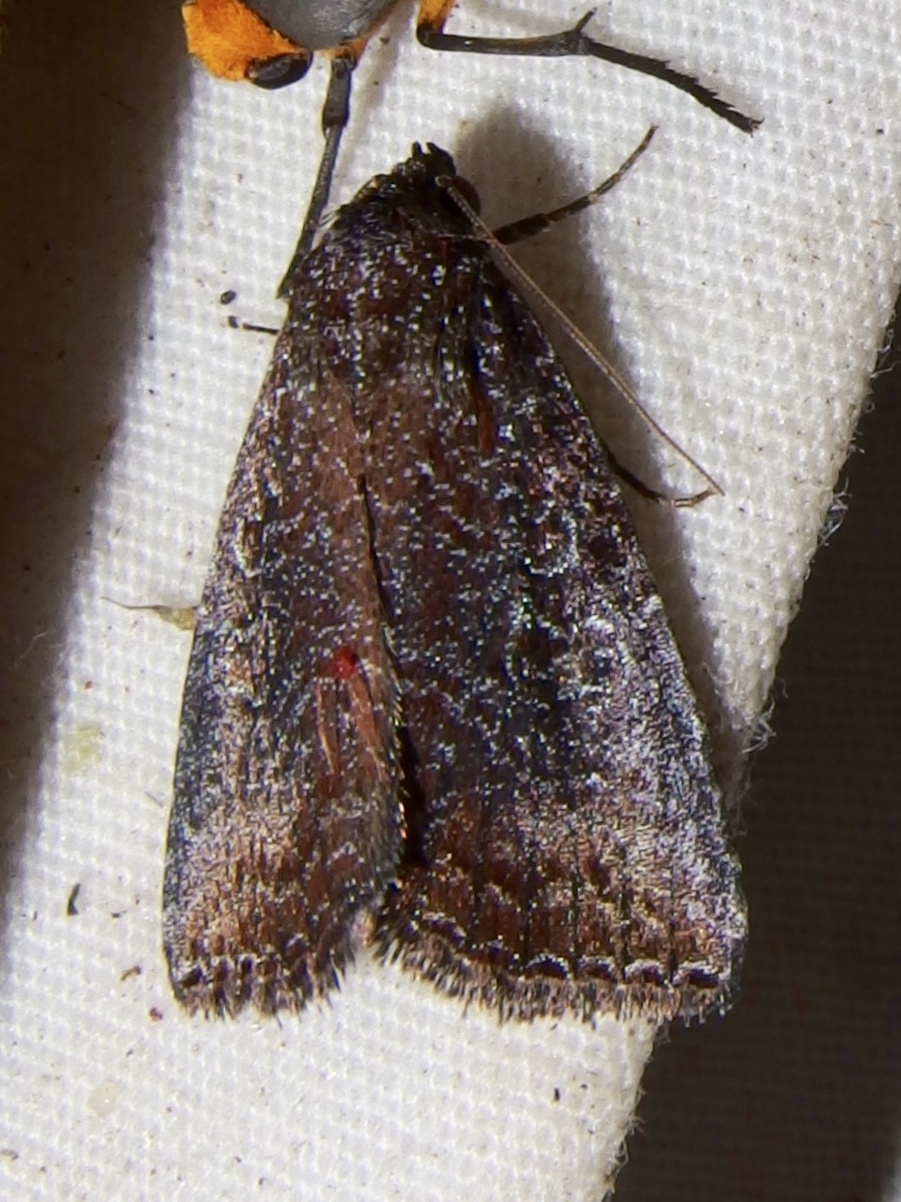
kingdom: Animalia
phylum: Arthropoda
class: Insecta
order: Lepidoptera
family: Noctuidae
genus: Ogdoconta
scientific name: Ogdoconta margareta
